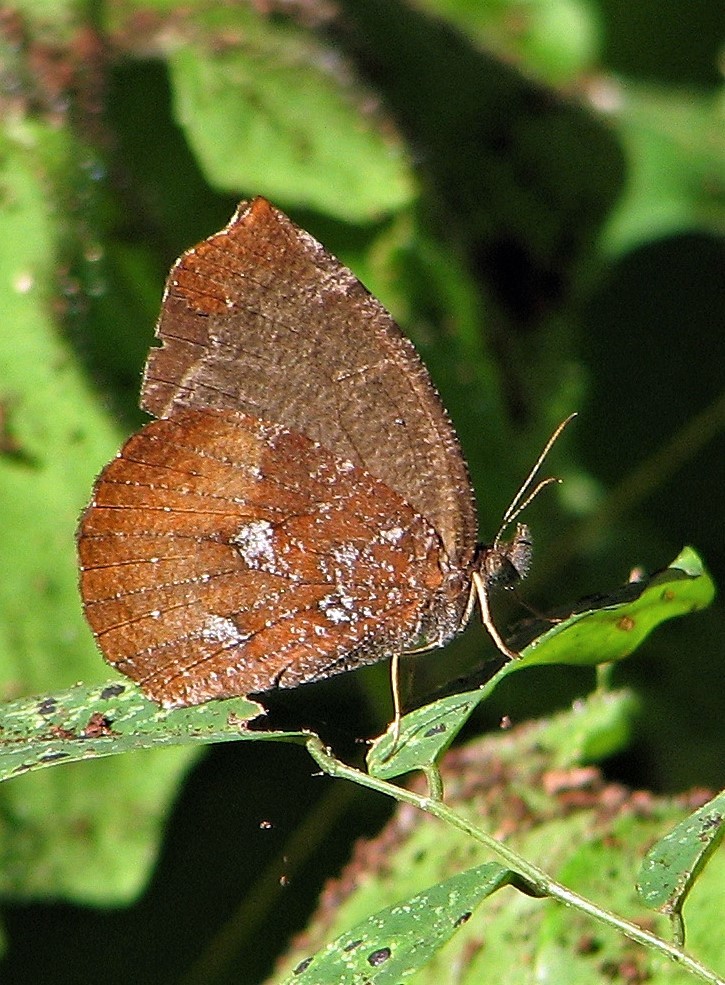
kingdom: Animalia
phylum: Arthropoda
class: Insecta
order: Lepidoptera
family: Nymphalidae
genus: Godartiana
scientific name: Godartiana muscosa
